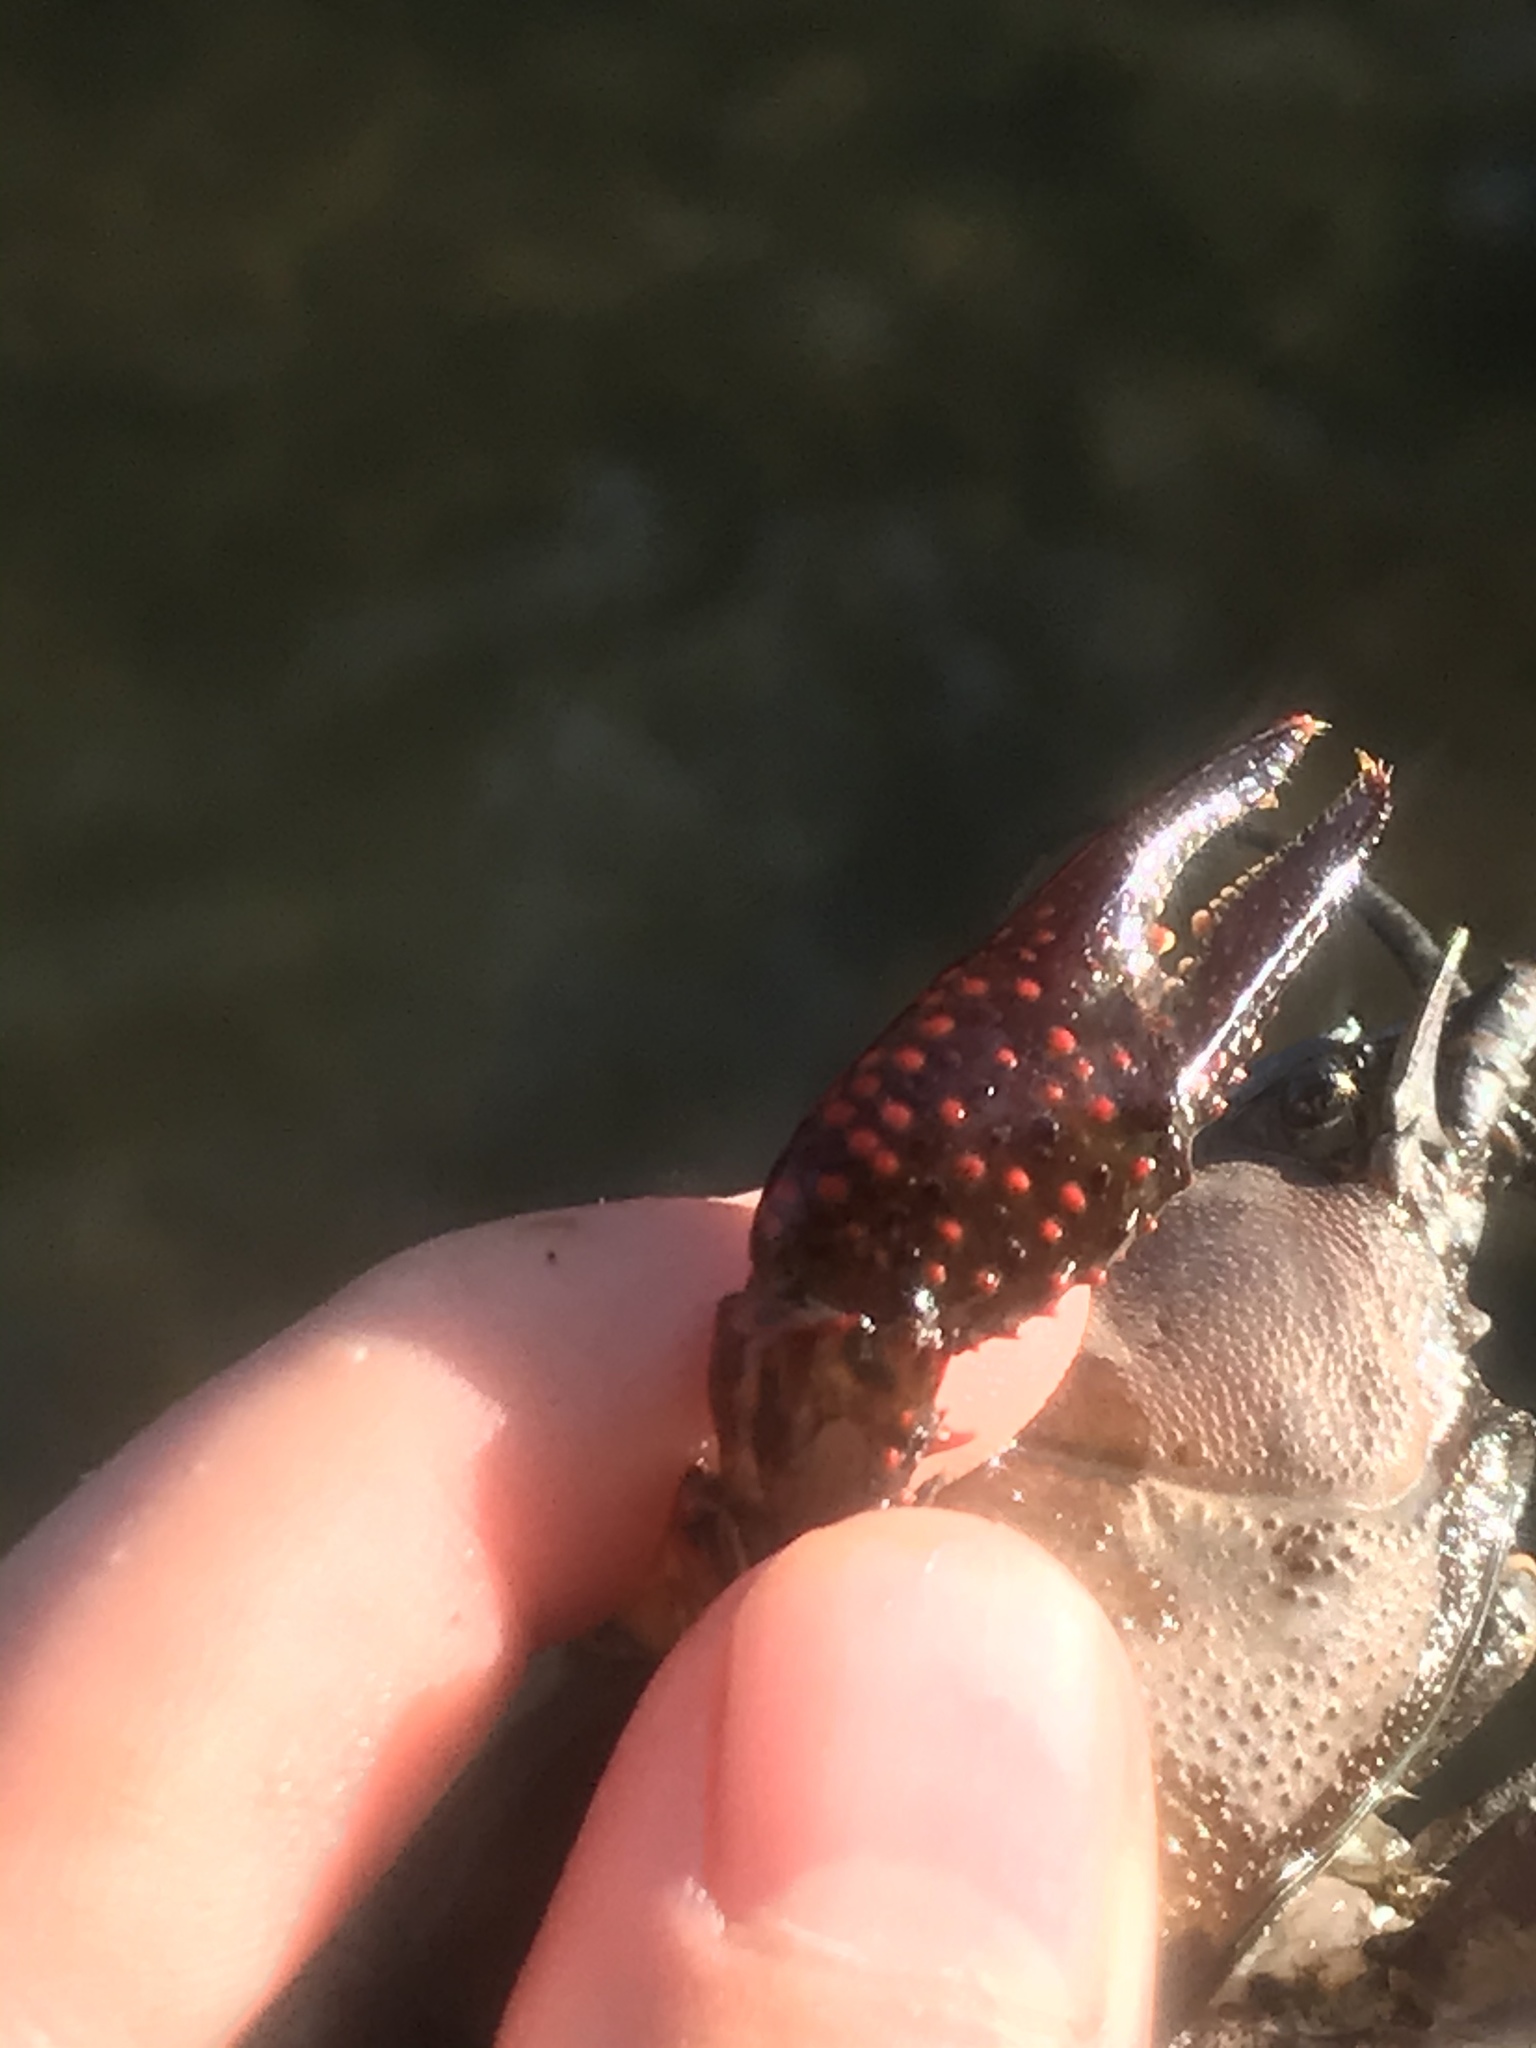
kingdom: Animalia
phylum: Arthropoda
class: Malacostraca
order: Decapoda
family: Cambaridae
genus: Procambarus
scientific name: Procambarus clarkii
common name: Red swamp crayfish
